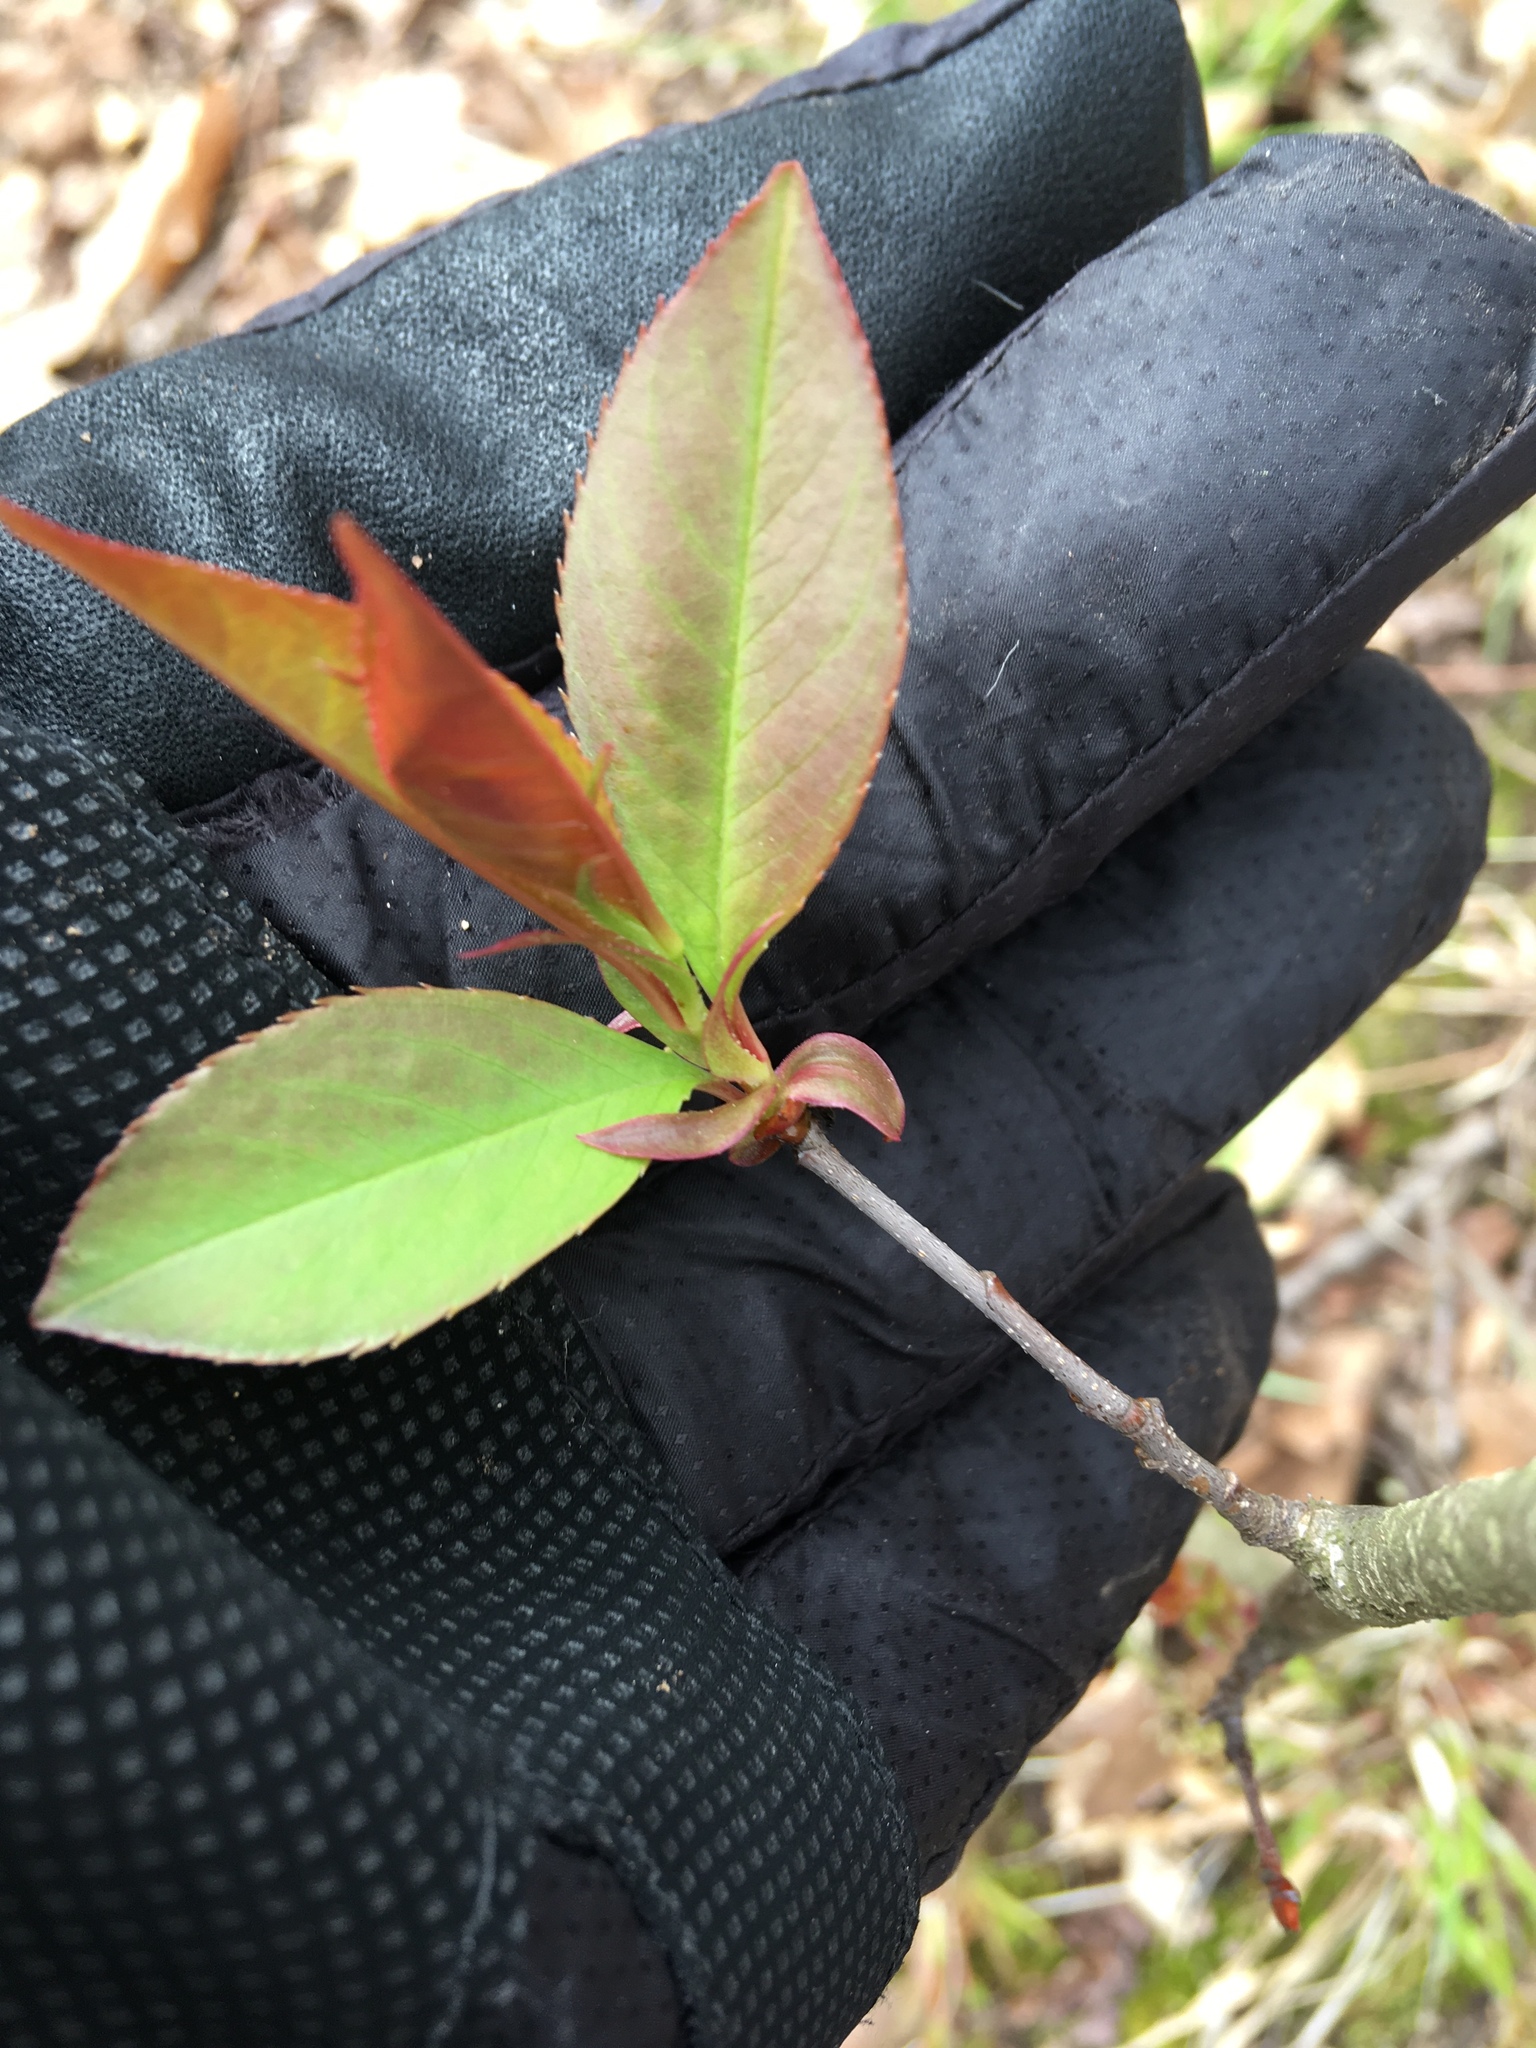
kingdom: Plantae
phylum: Tracheophyta
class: Magnoliopsida
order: Rosales
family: Rosaceae
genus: Prunus
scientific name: Prunus serotina
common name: Black cherry
